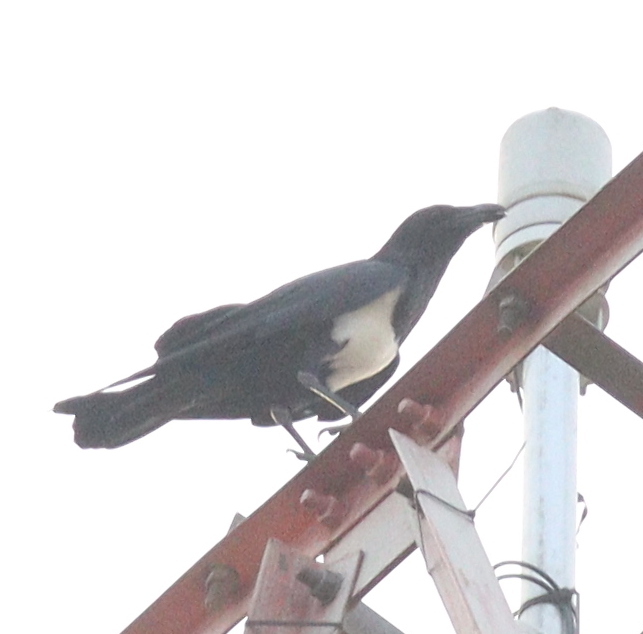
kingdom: Animalia
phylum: Chordata
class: Aves
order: Passeriformes
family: Corvidae
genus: Corvus
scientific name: Corvus albus
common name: Pied crow
